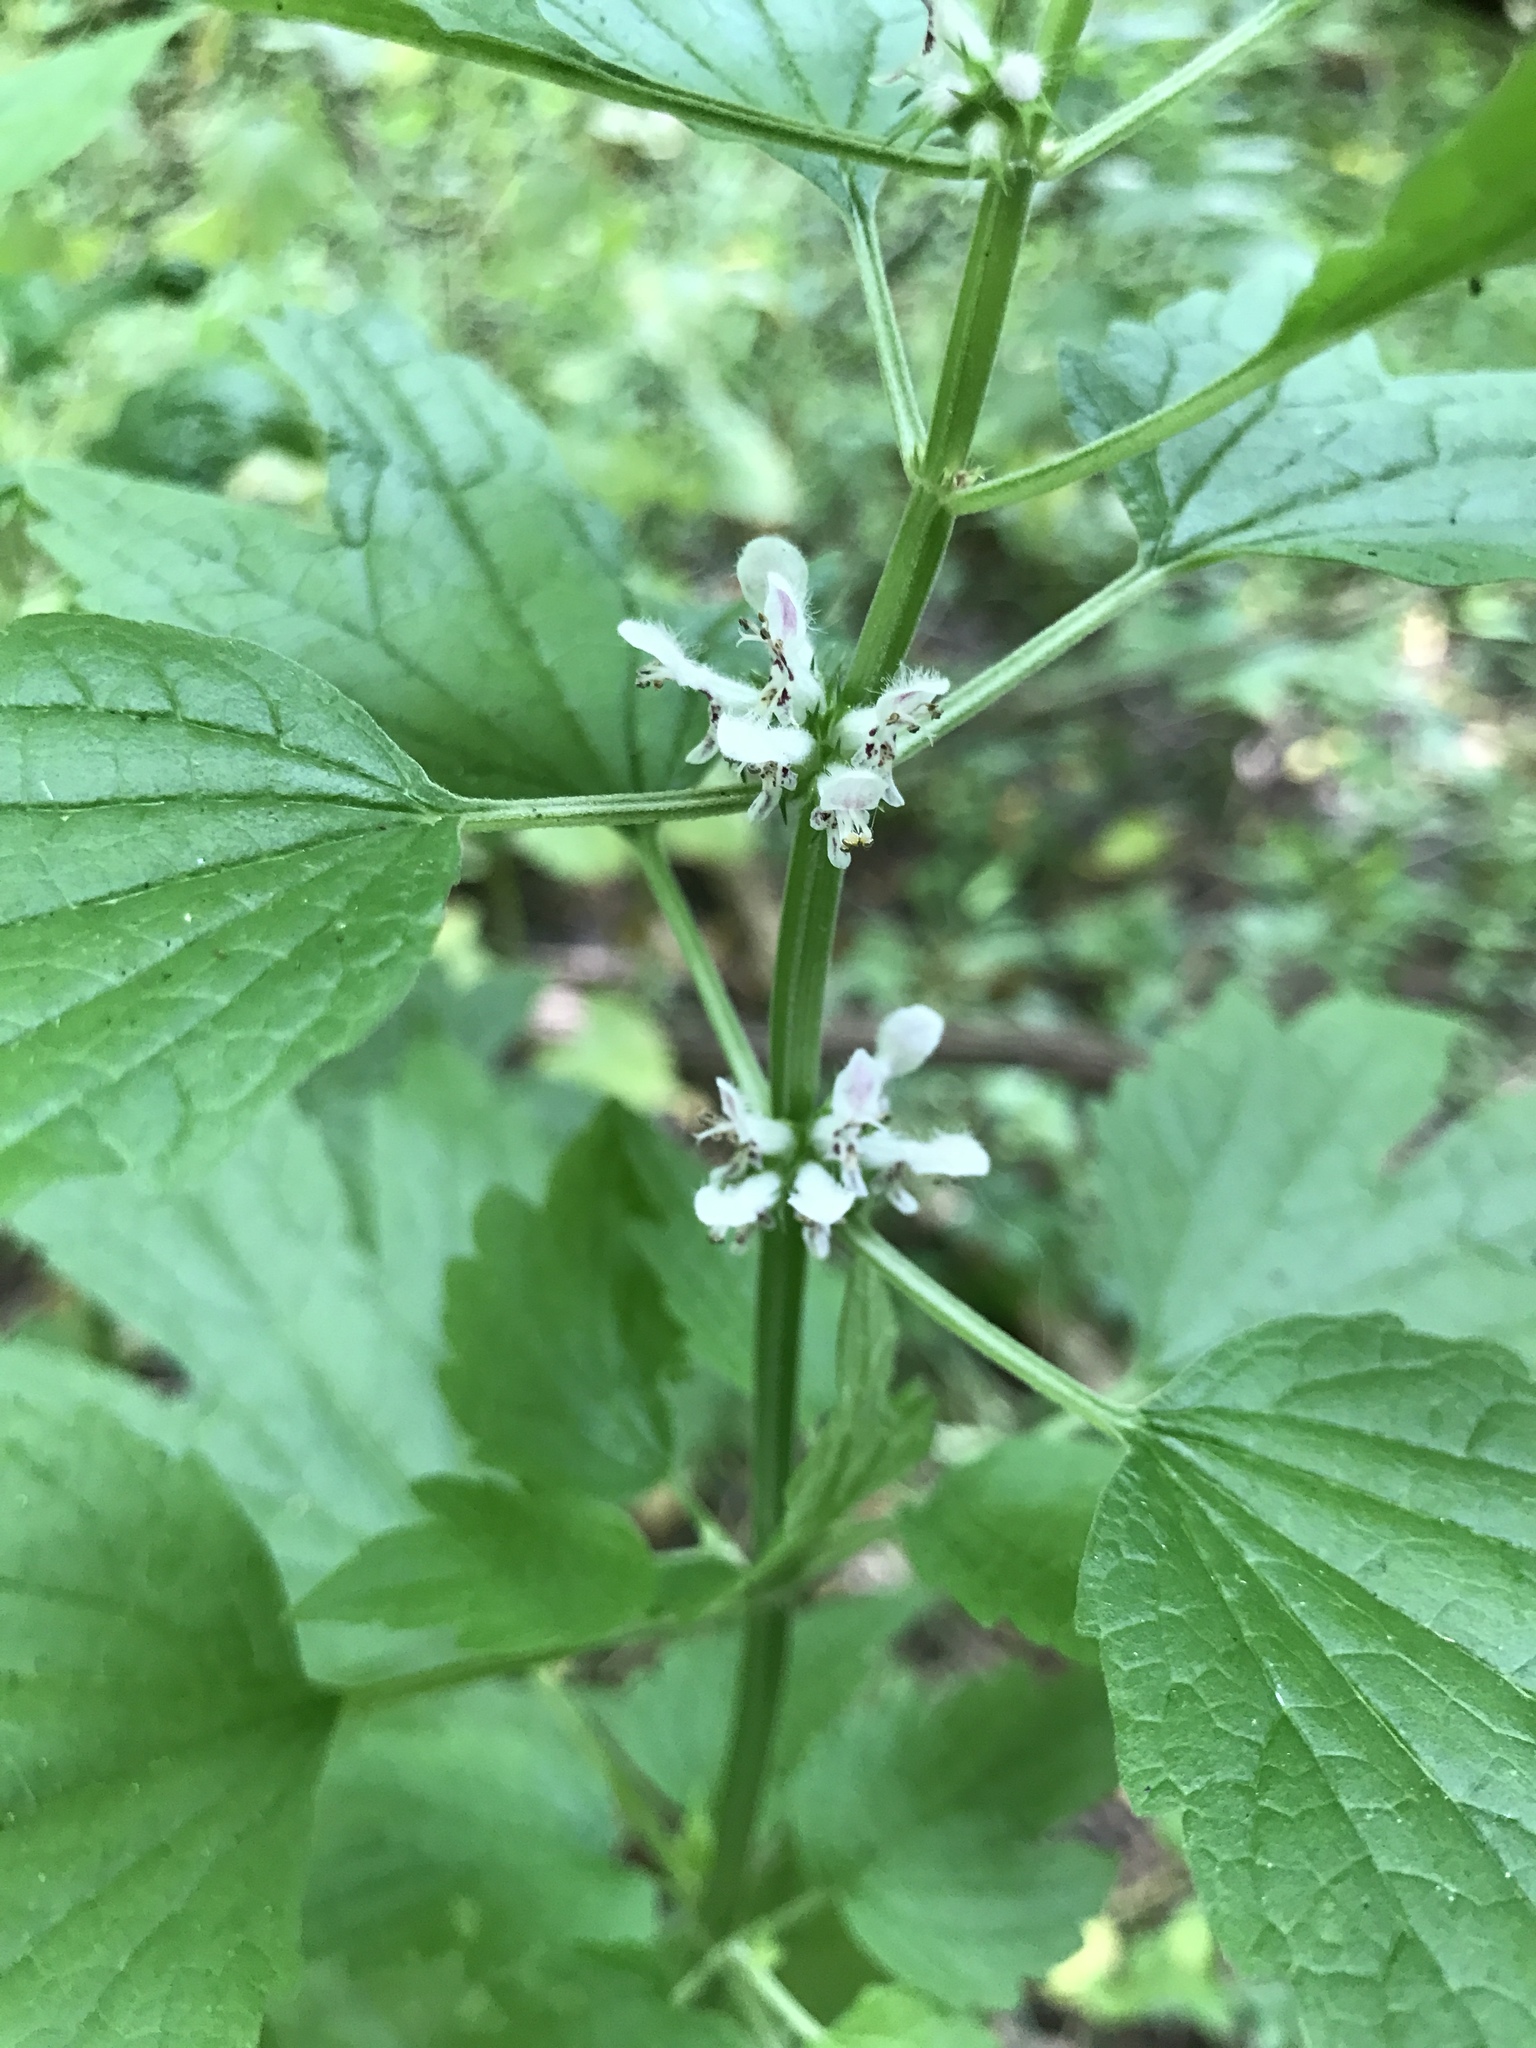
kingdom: Plantae
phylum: Tracheophyta
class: Magnoliopsida
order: Lamiales
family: Lamiaceae
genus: Leonurus
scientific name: Leonurus cardiaca
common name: Motherwort
